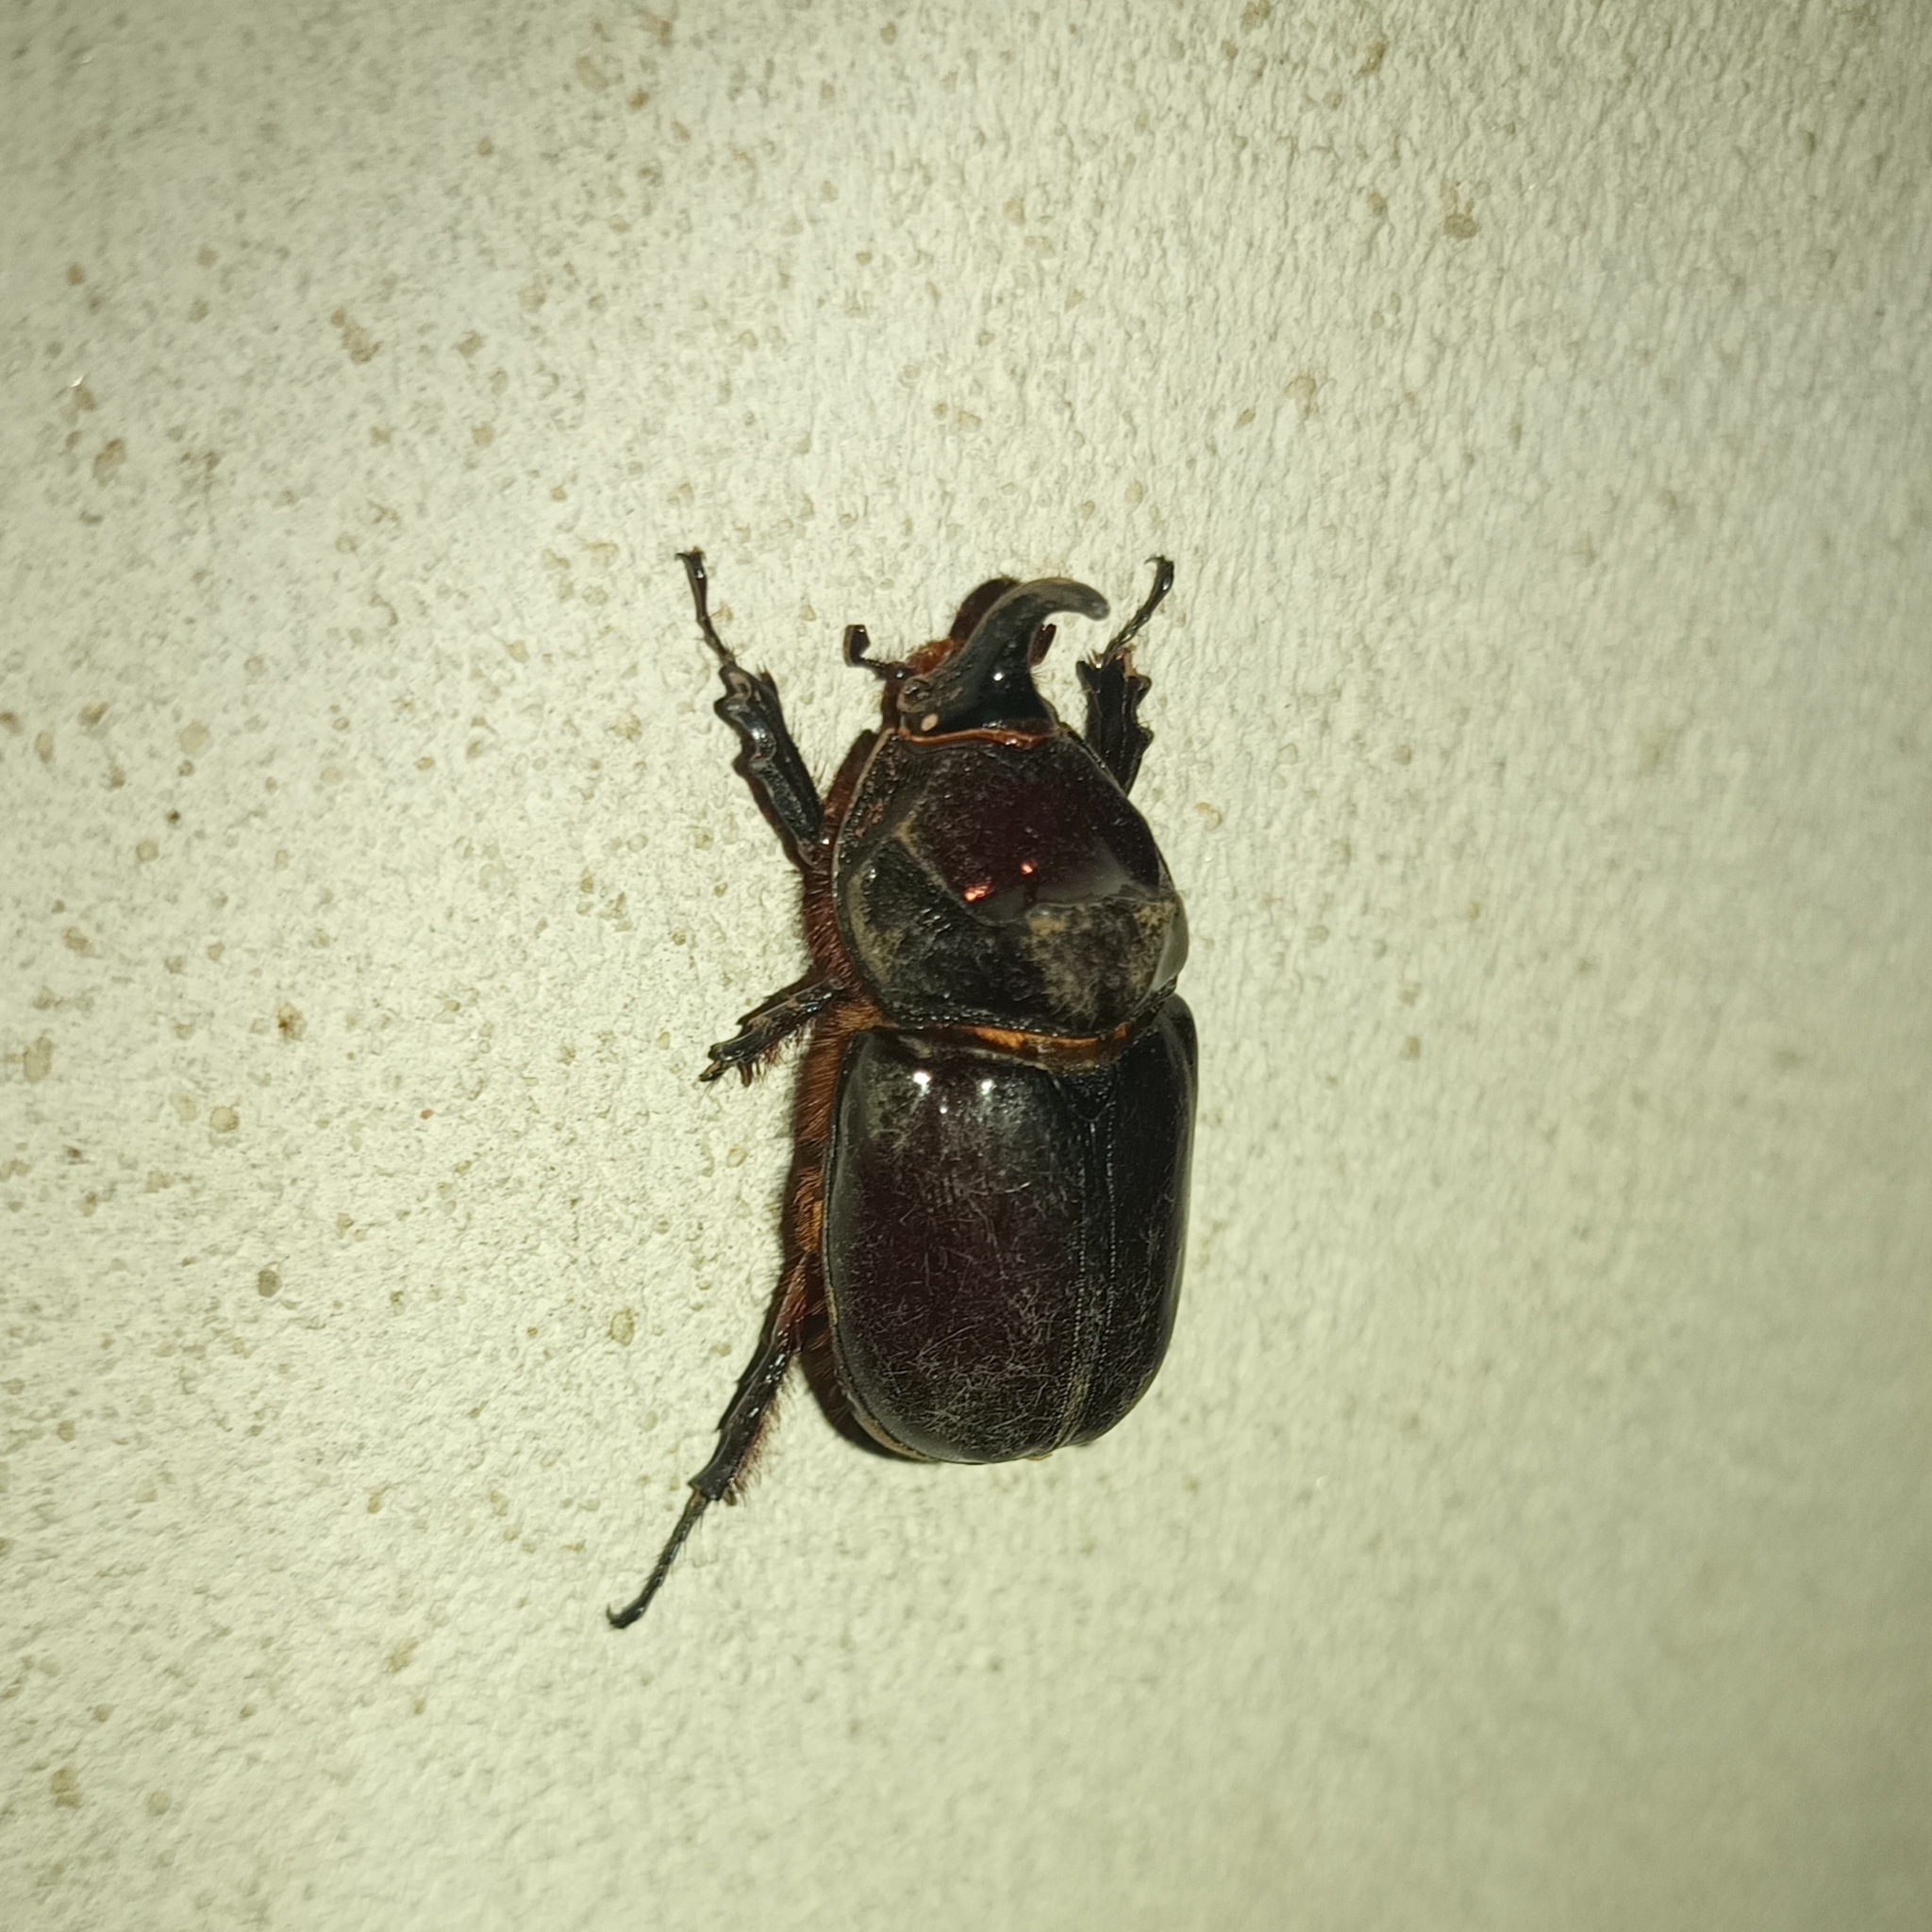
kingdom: Animalia
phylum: Arthropoda
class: Insecta
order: Coleoptera
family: Scarabaeidae
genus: Oryctes
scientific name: Oryctes nasicornis
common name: European rhinoceros beetle
